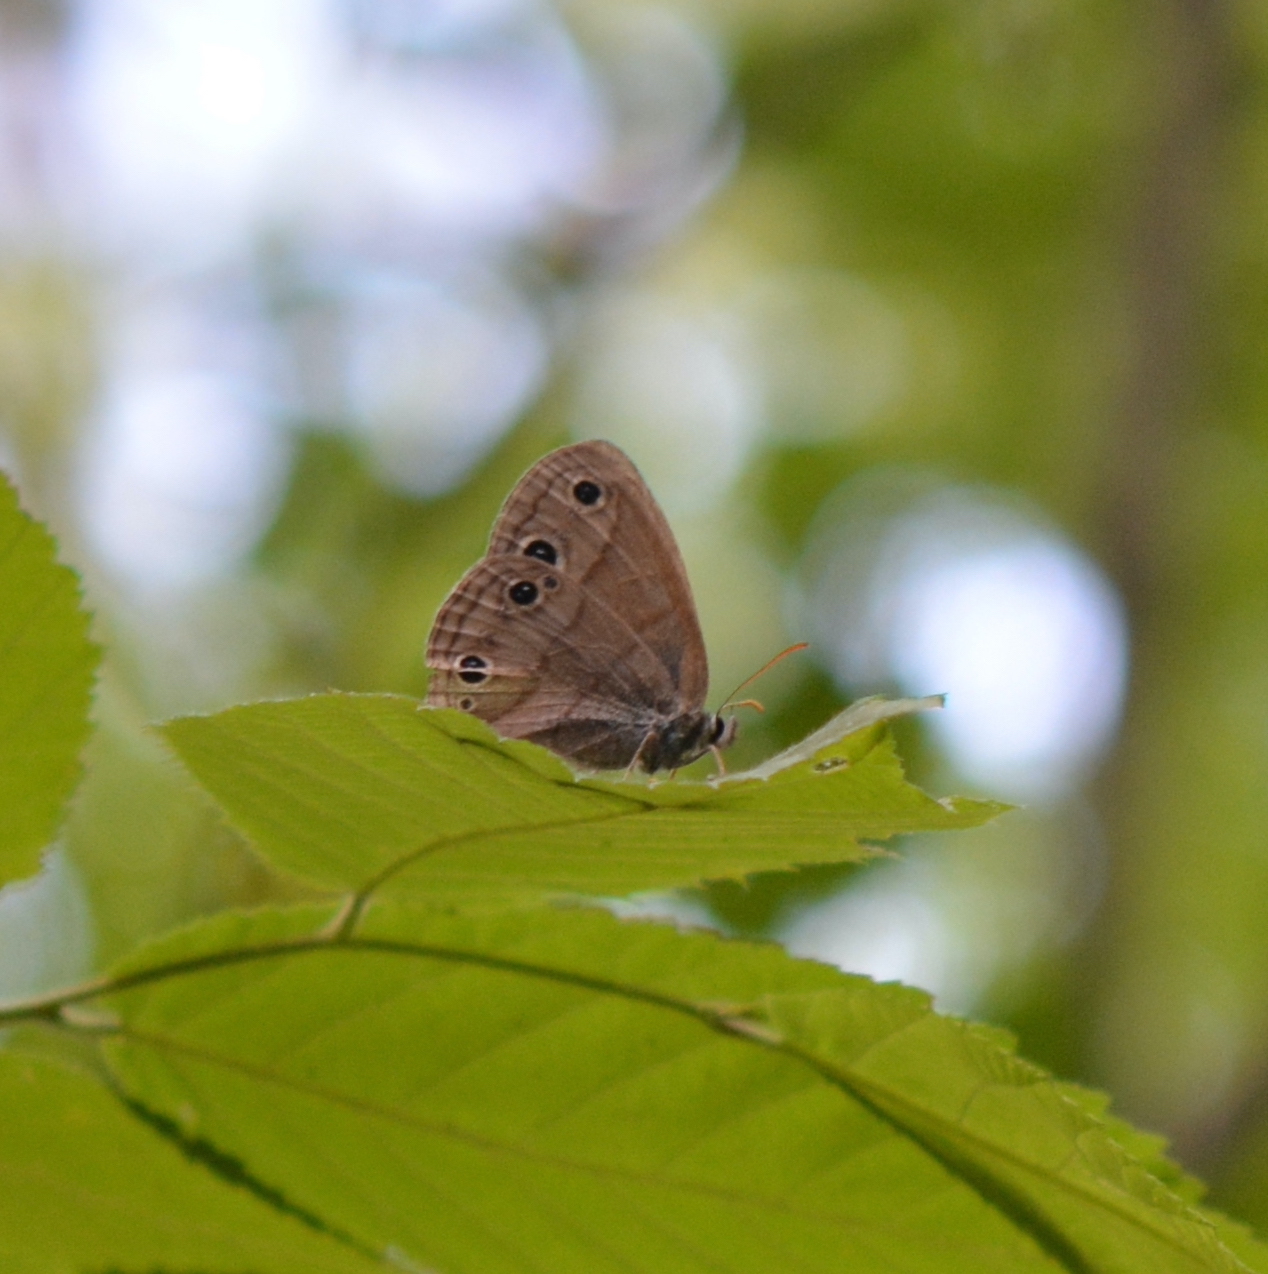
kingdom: Animalia
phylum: Arthropoda
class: Insecta
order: Lepidoptera
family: Nymphalidae
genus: Euptychia
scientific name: Euptychia cymela
